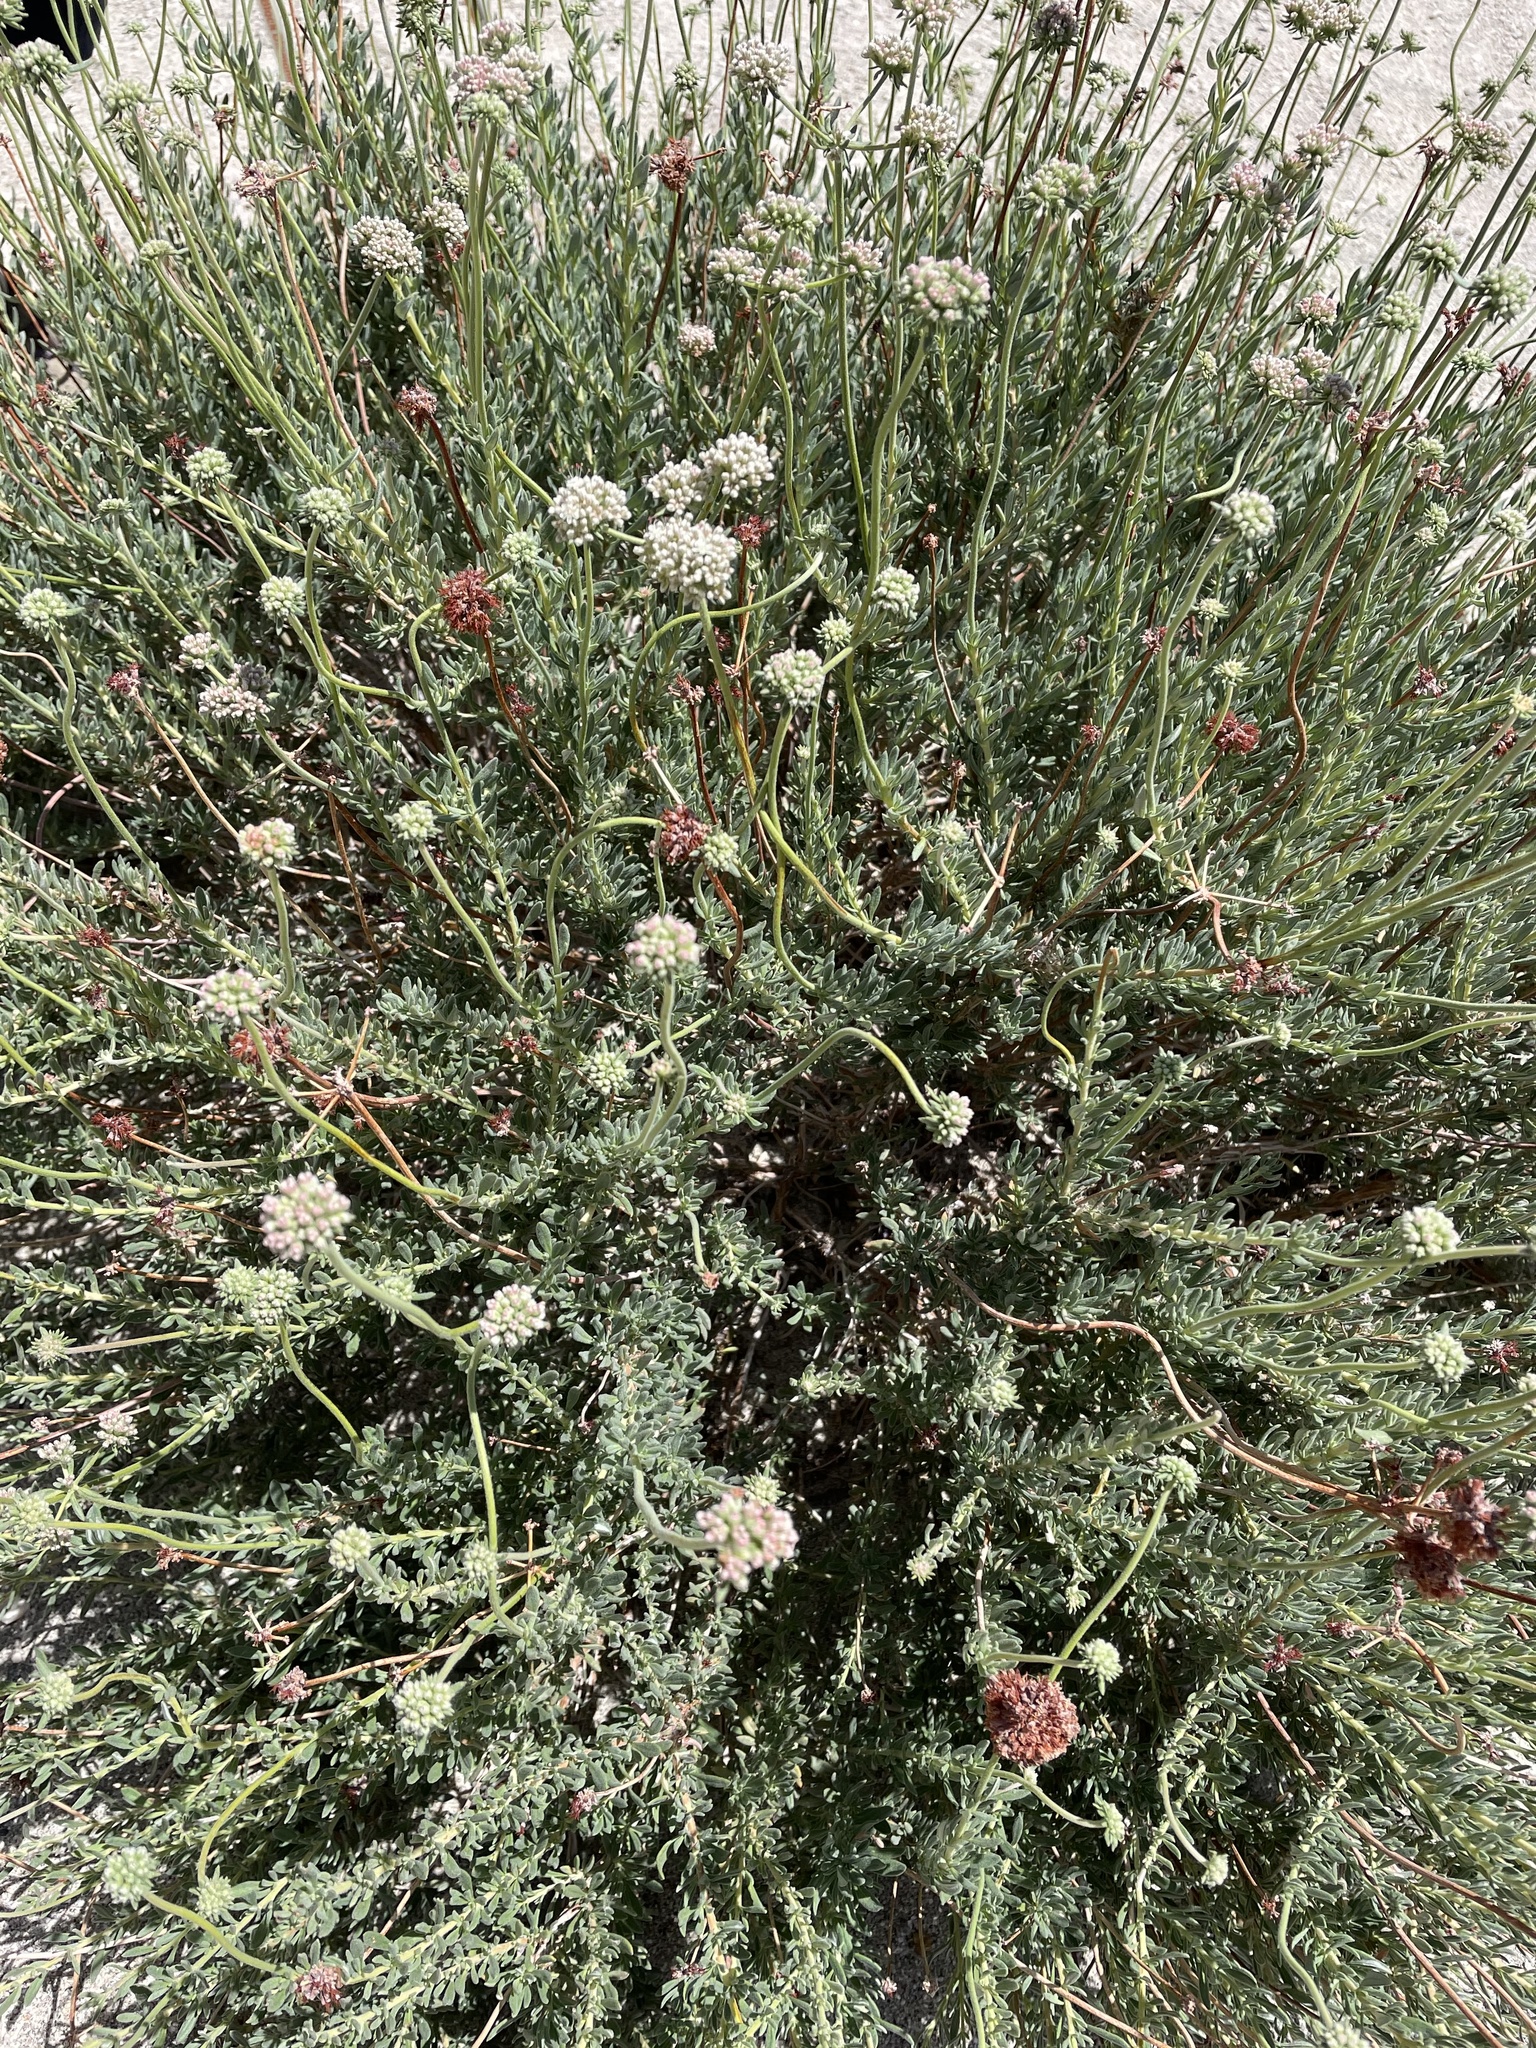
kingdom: Plantae
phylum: Tracheophyta
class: Magnoliopsida
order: Caryophyllales
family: Polygonaceae
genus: Eriogonum
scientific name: Eriogonum fasciculatum
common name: California wild buckwheat
